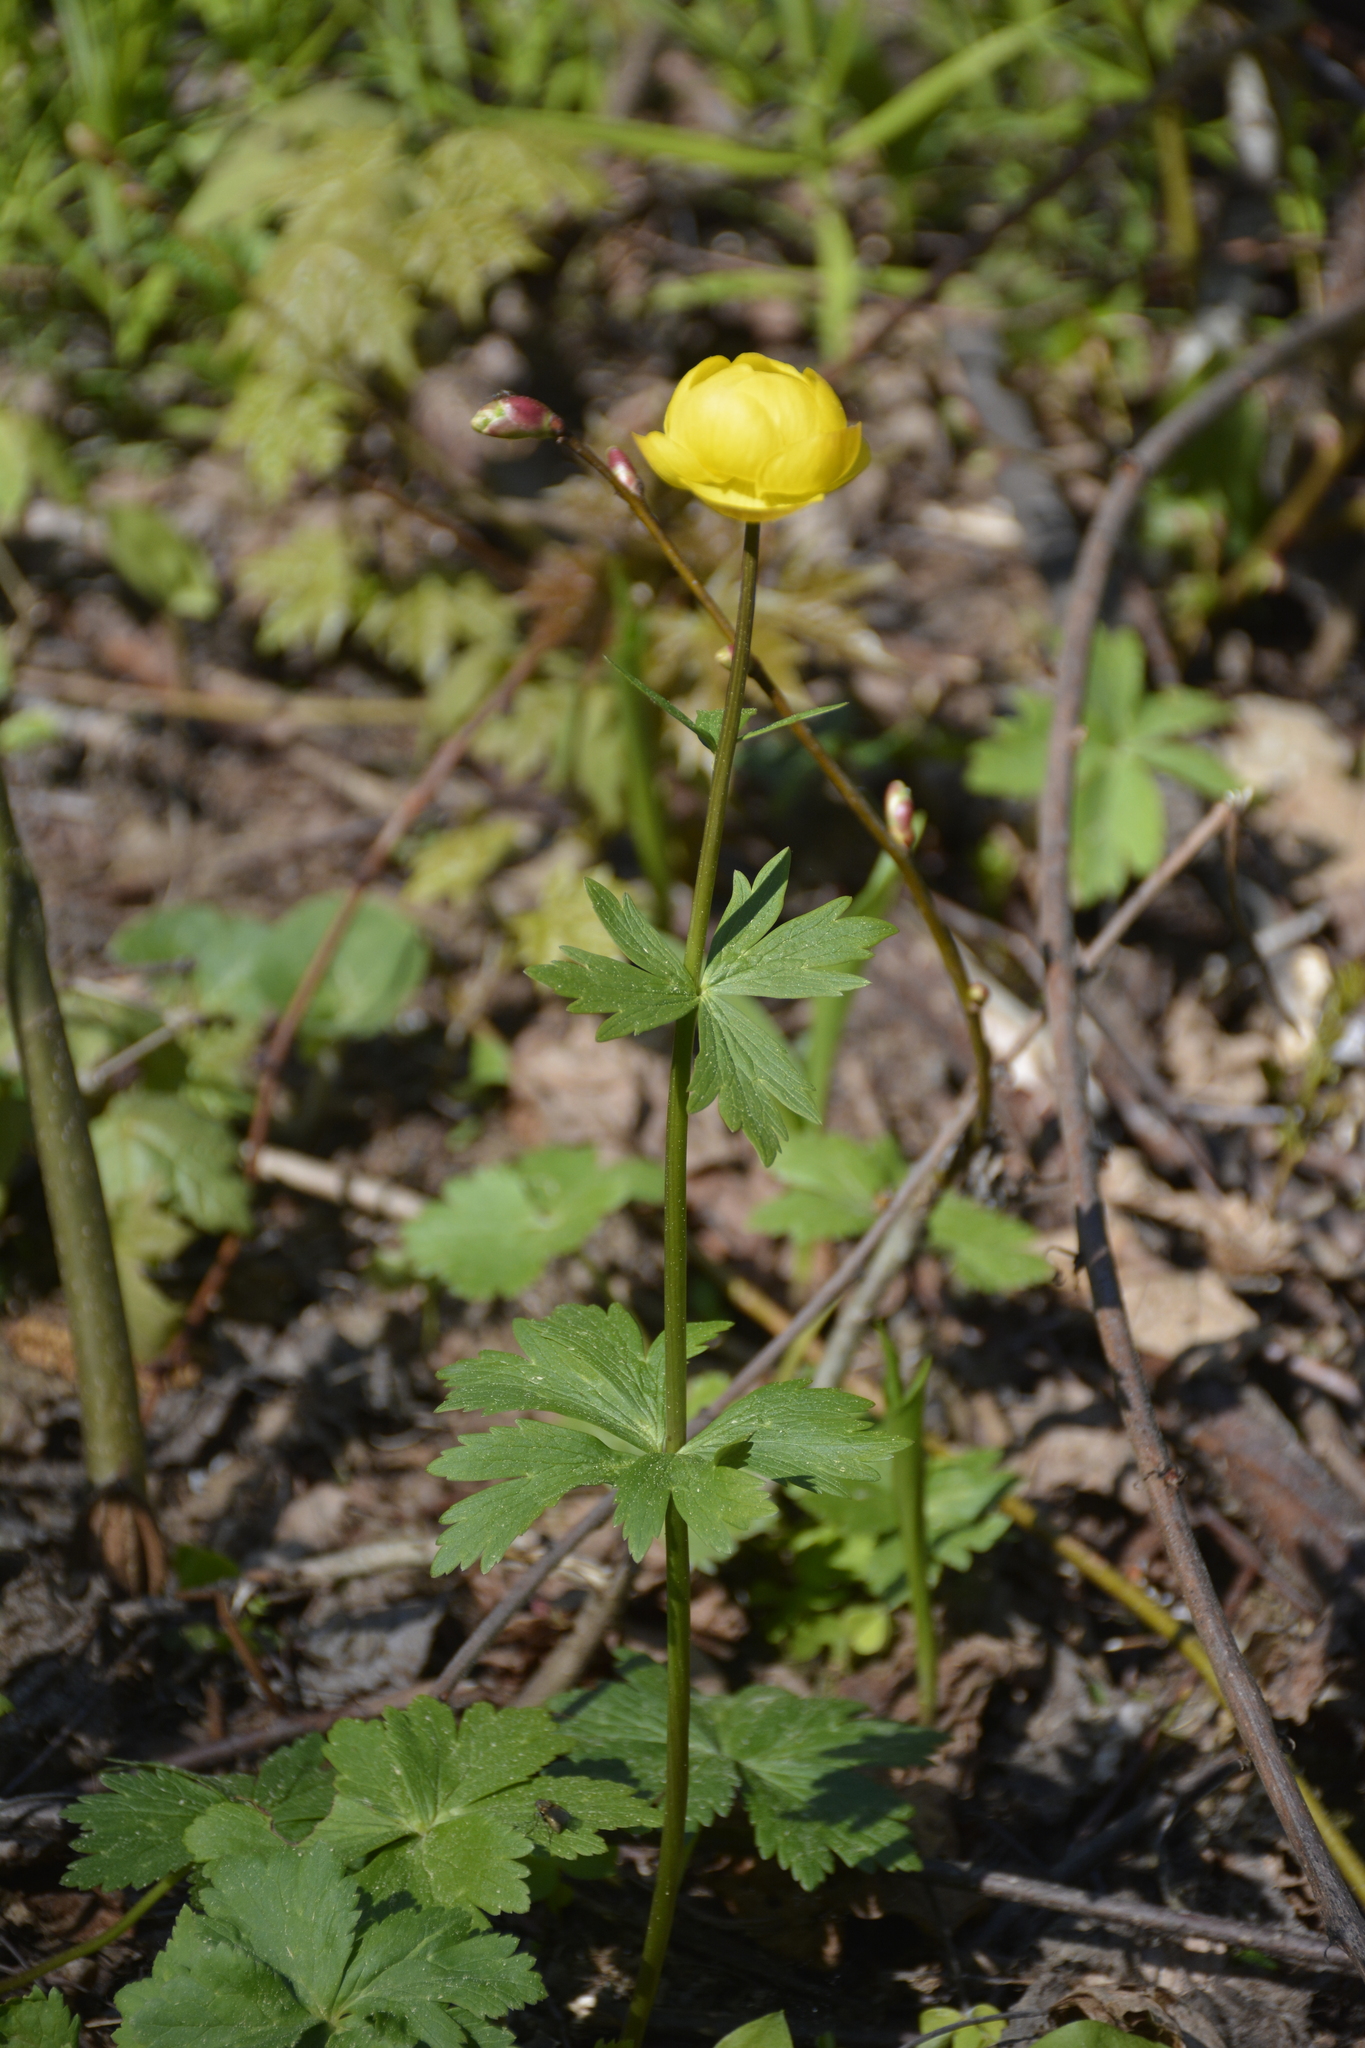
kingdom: Plantae
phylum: Tracheophyta
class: Magnoliopsida
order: Ranunculales
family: Ranunculaceae
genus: Trollius
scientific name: Trollius europaeus
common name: European globeflower
